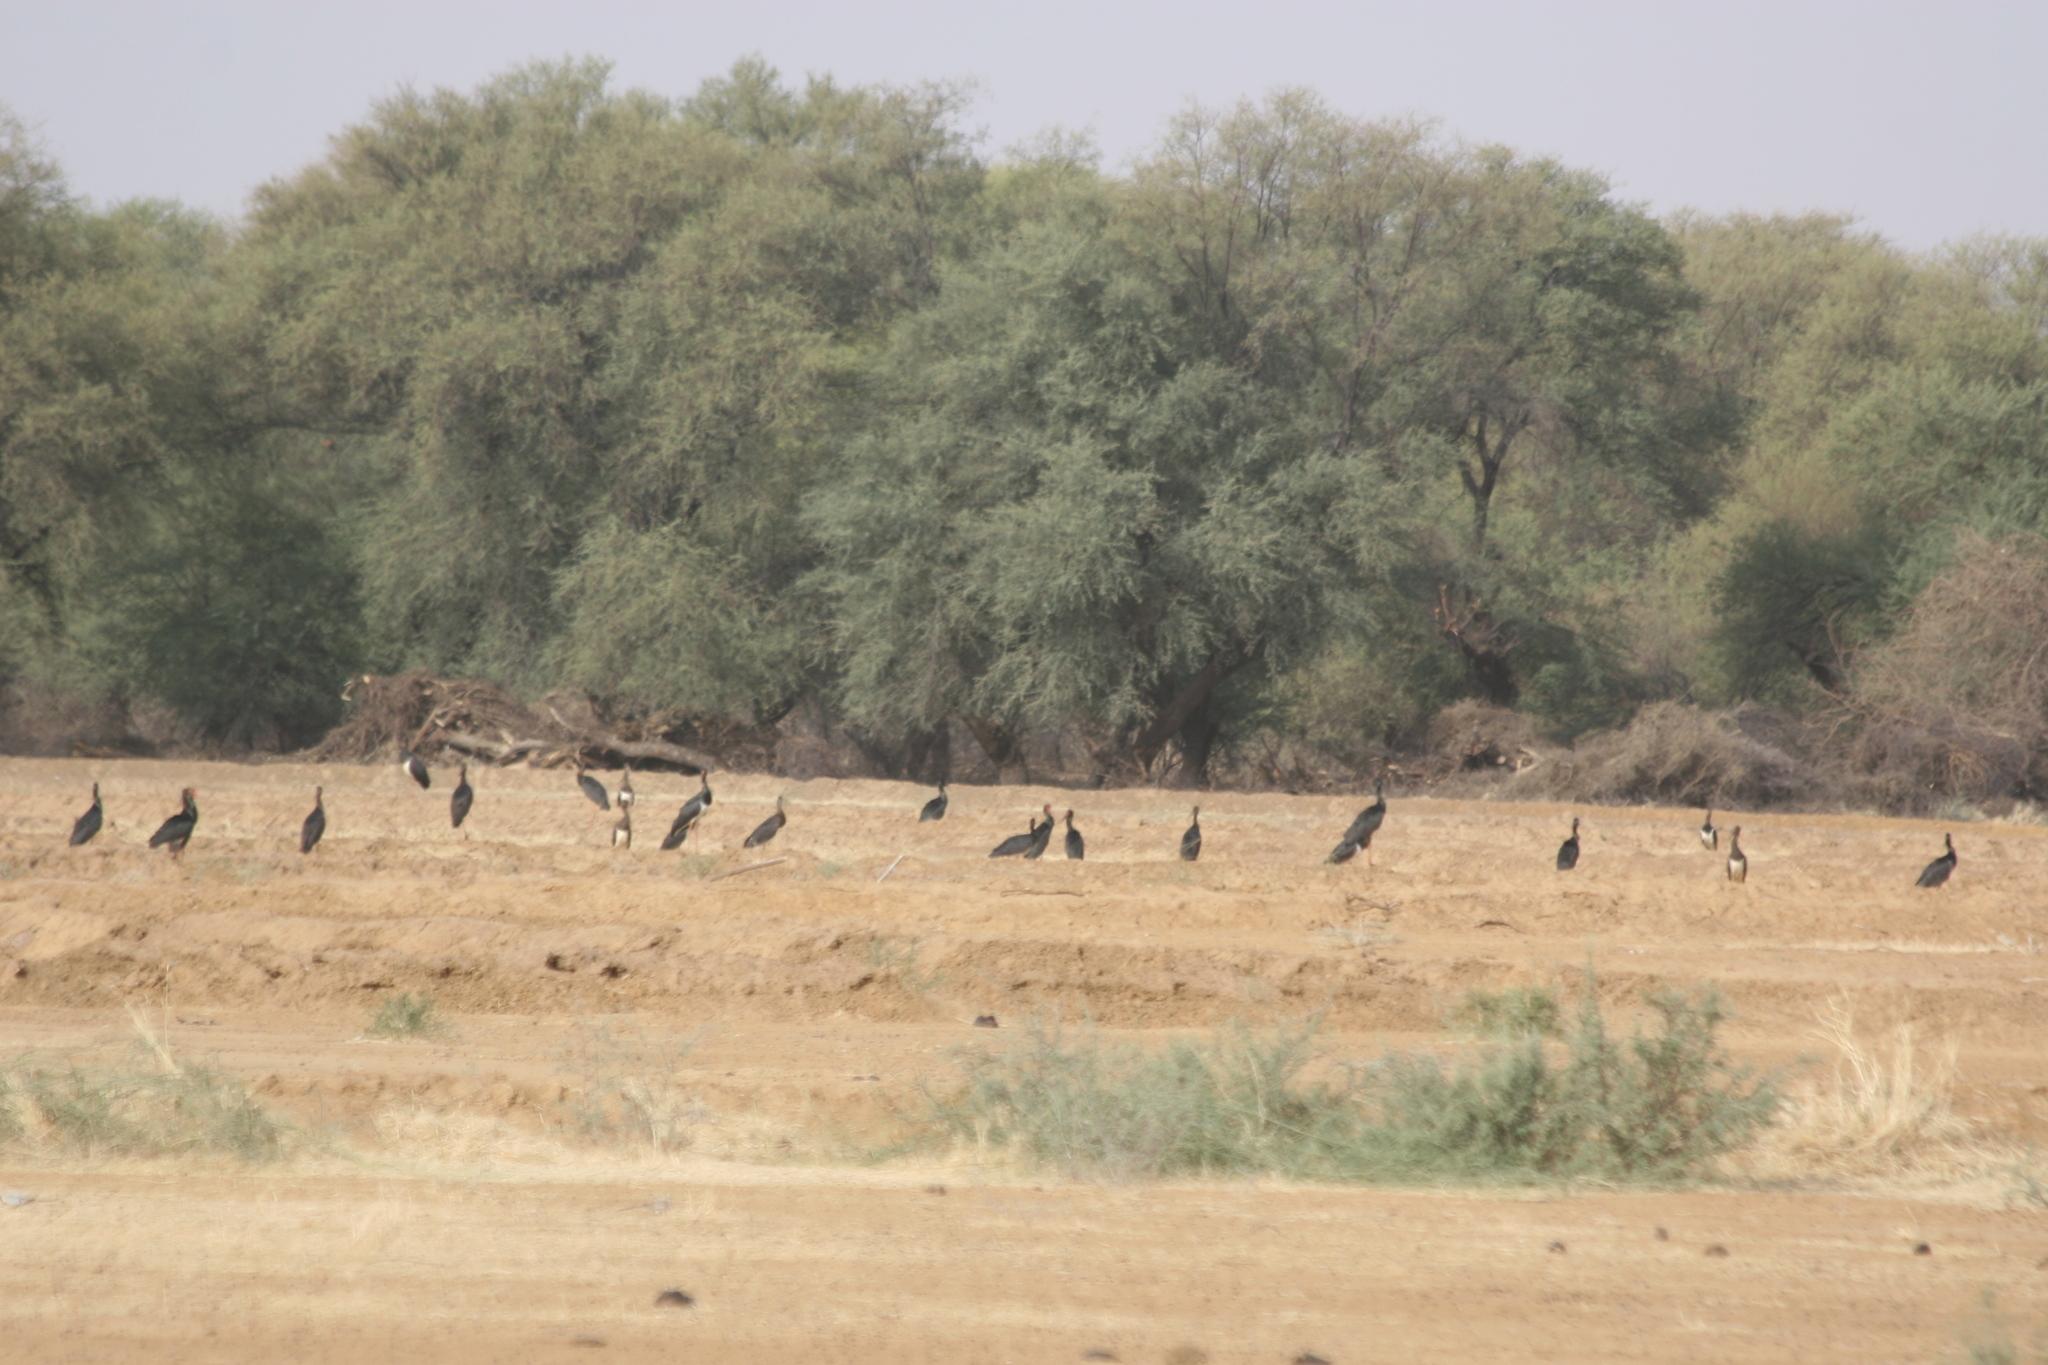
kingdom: Animalia
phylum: Chordata
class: Aves
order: Ciconiiformes
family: Ciconiidae
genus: Ciconia
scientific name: Ciconia nigra
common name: Black stork
